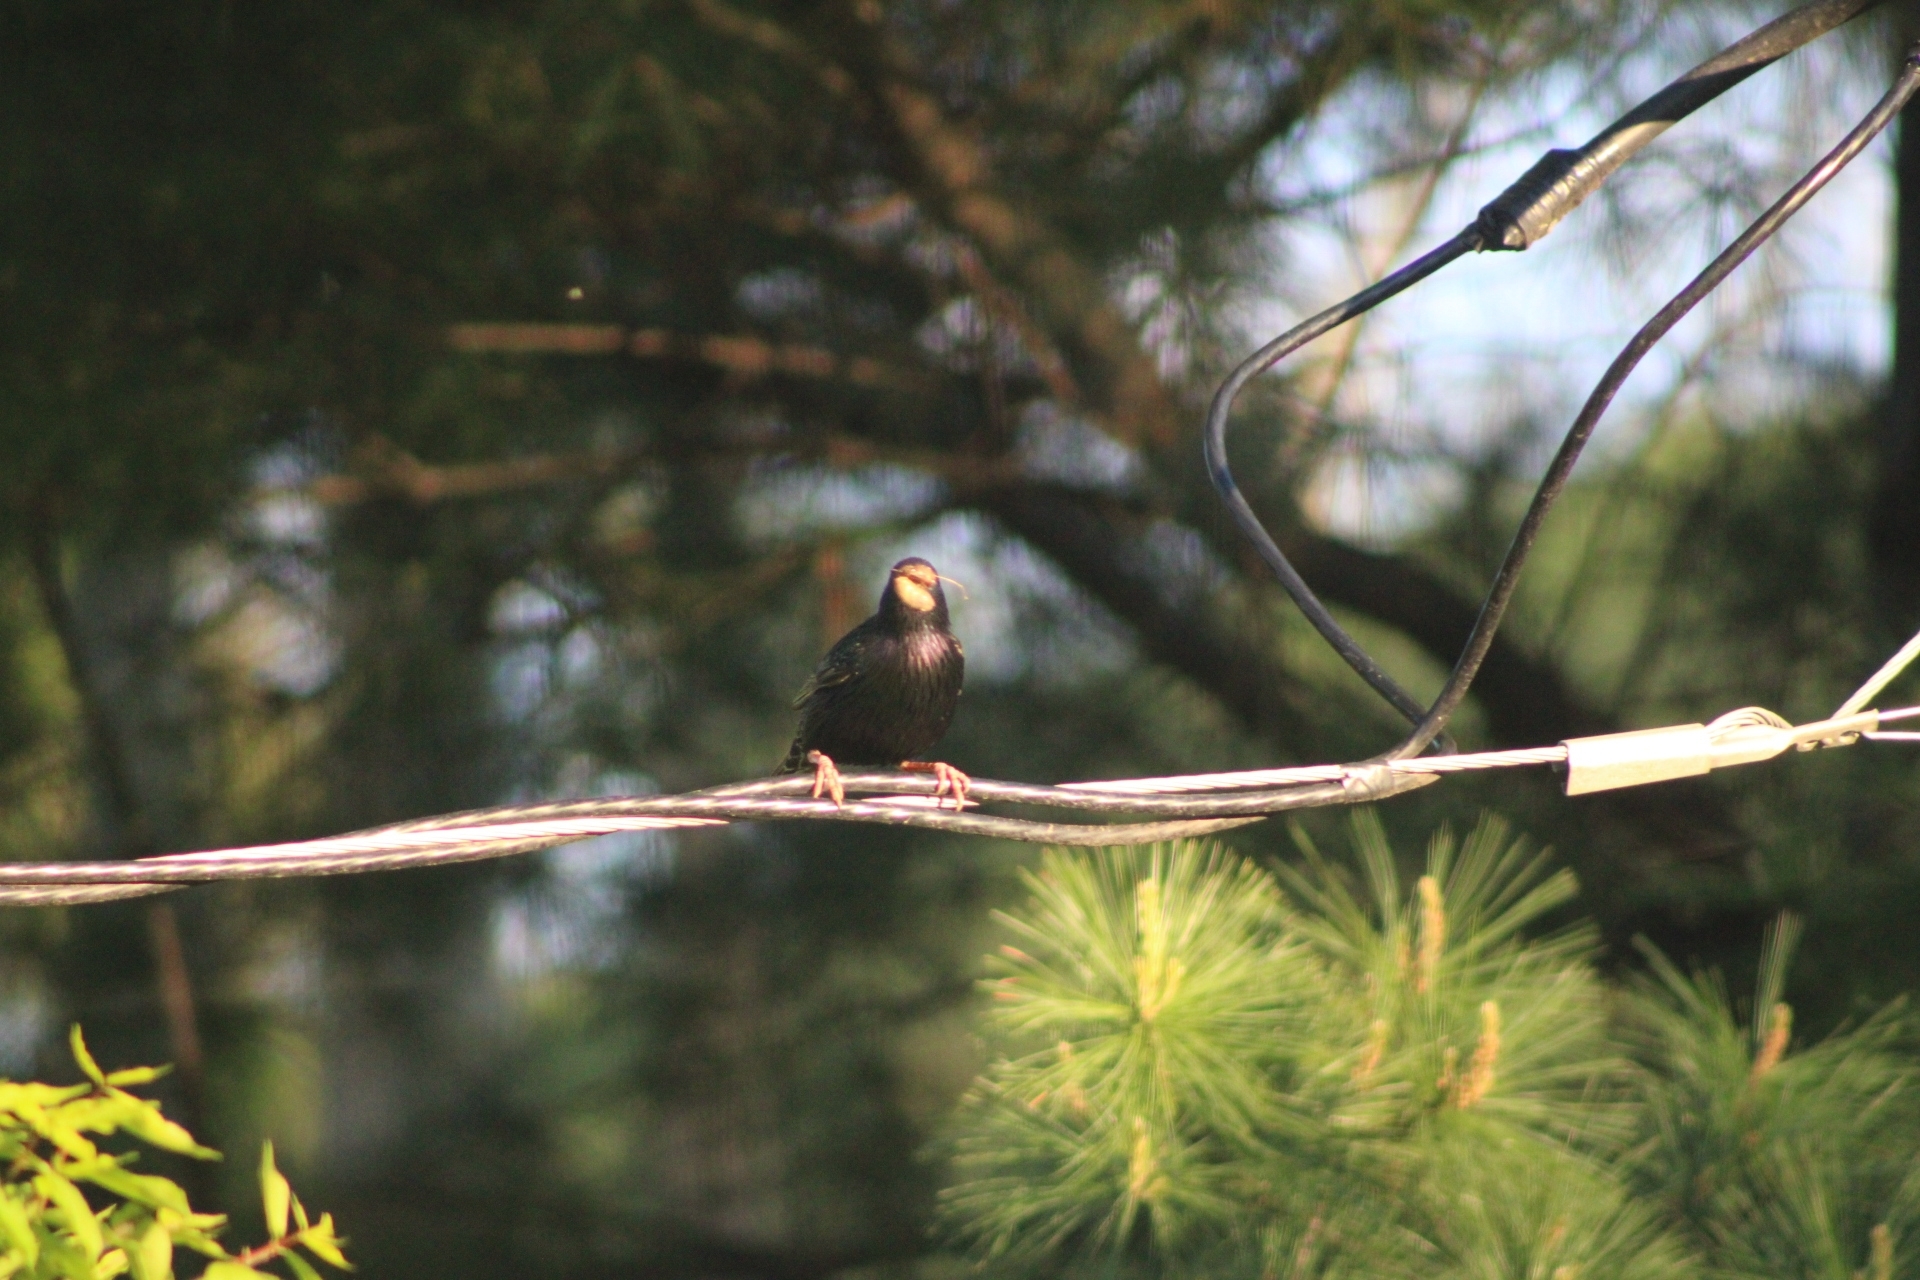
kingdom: Animalia
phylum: Chordata
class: Aves
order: Passeriformes
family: Sturnidae
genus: Sturnus
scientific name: Sturnus vulgaris
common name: Common starling
